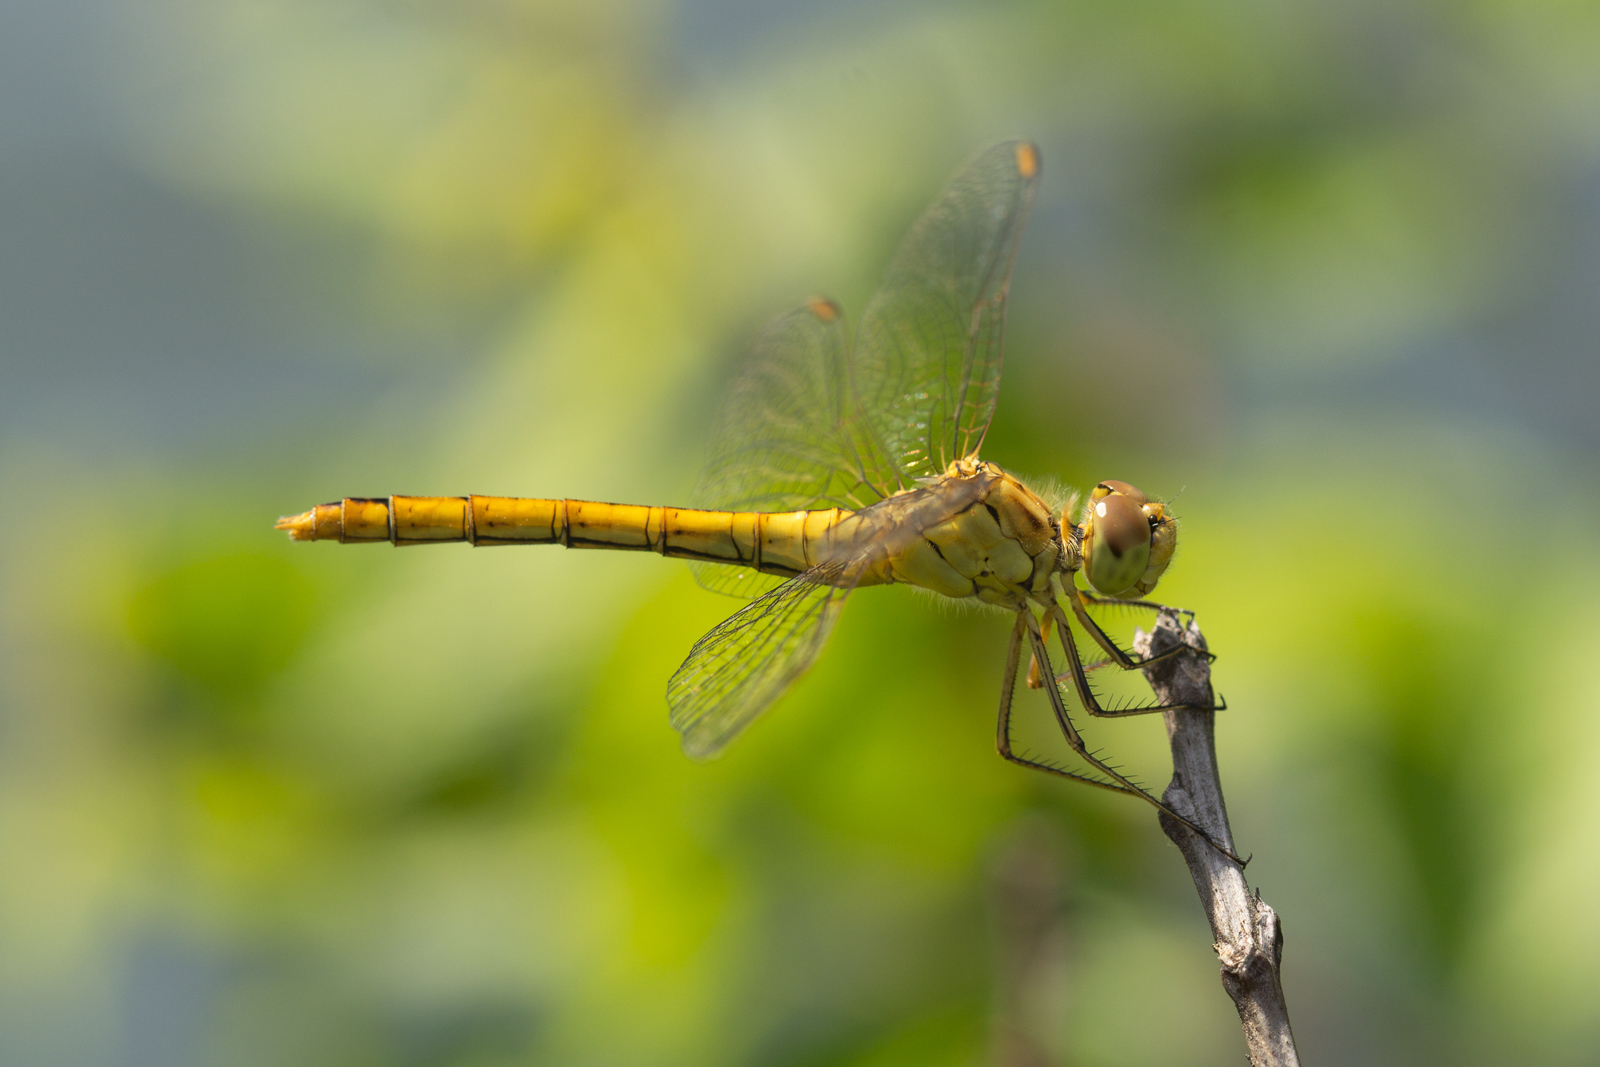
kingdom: Animalia
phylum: Arthropoda
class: Insecta
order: Odonata
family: Libellulidae
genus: Sympetrum
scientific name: Sympetrum meridionale
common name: Southern darter
